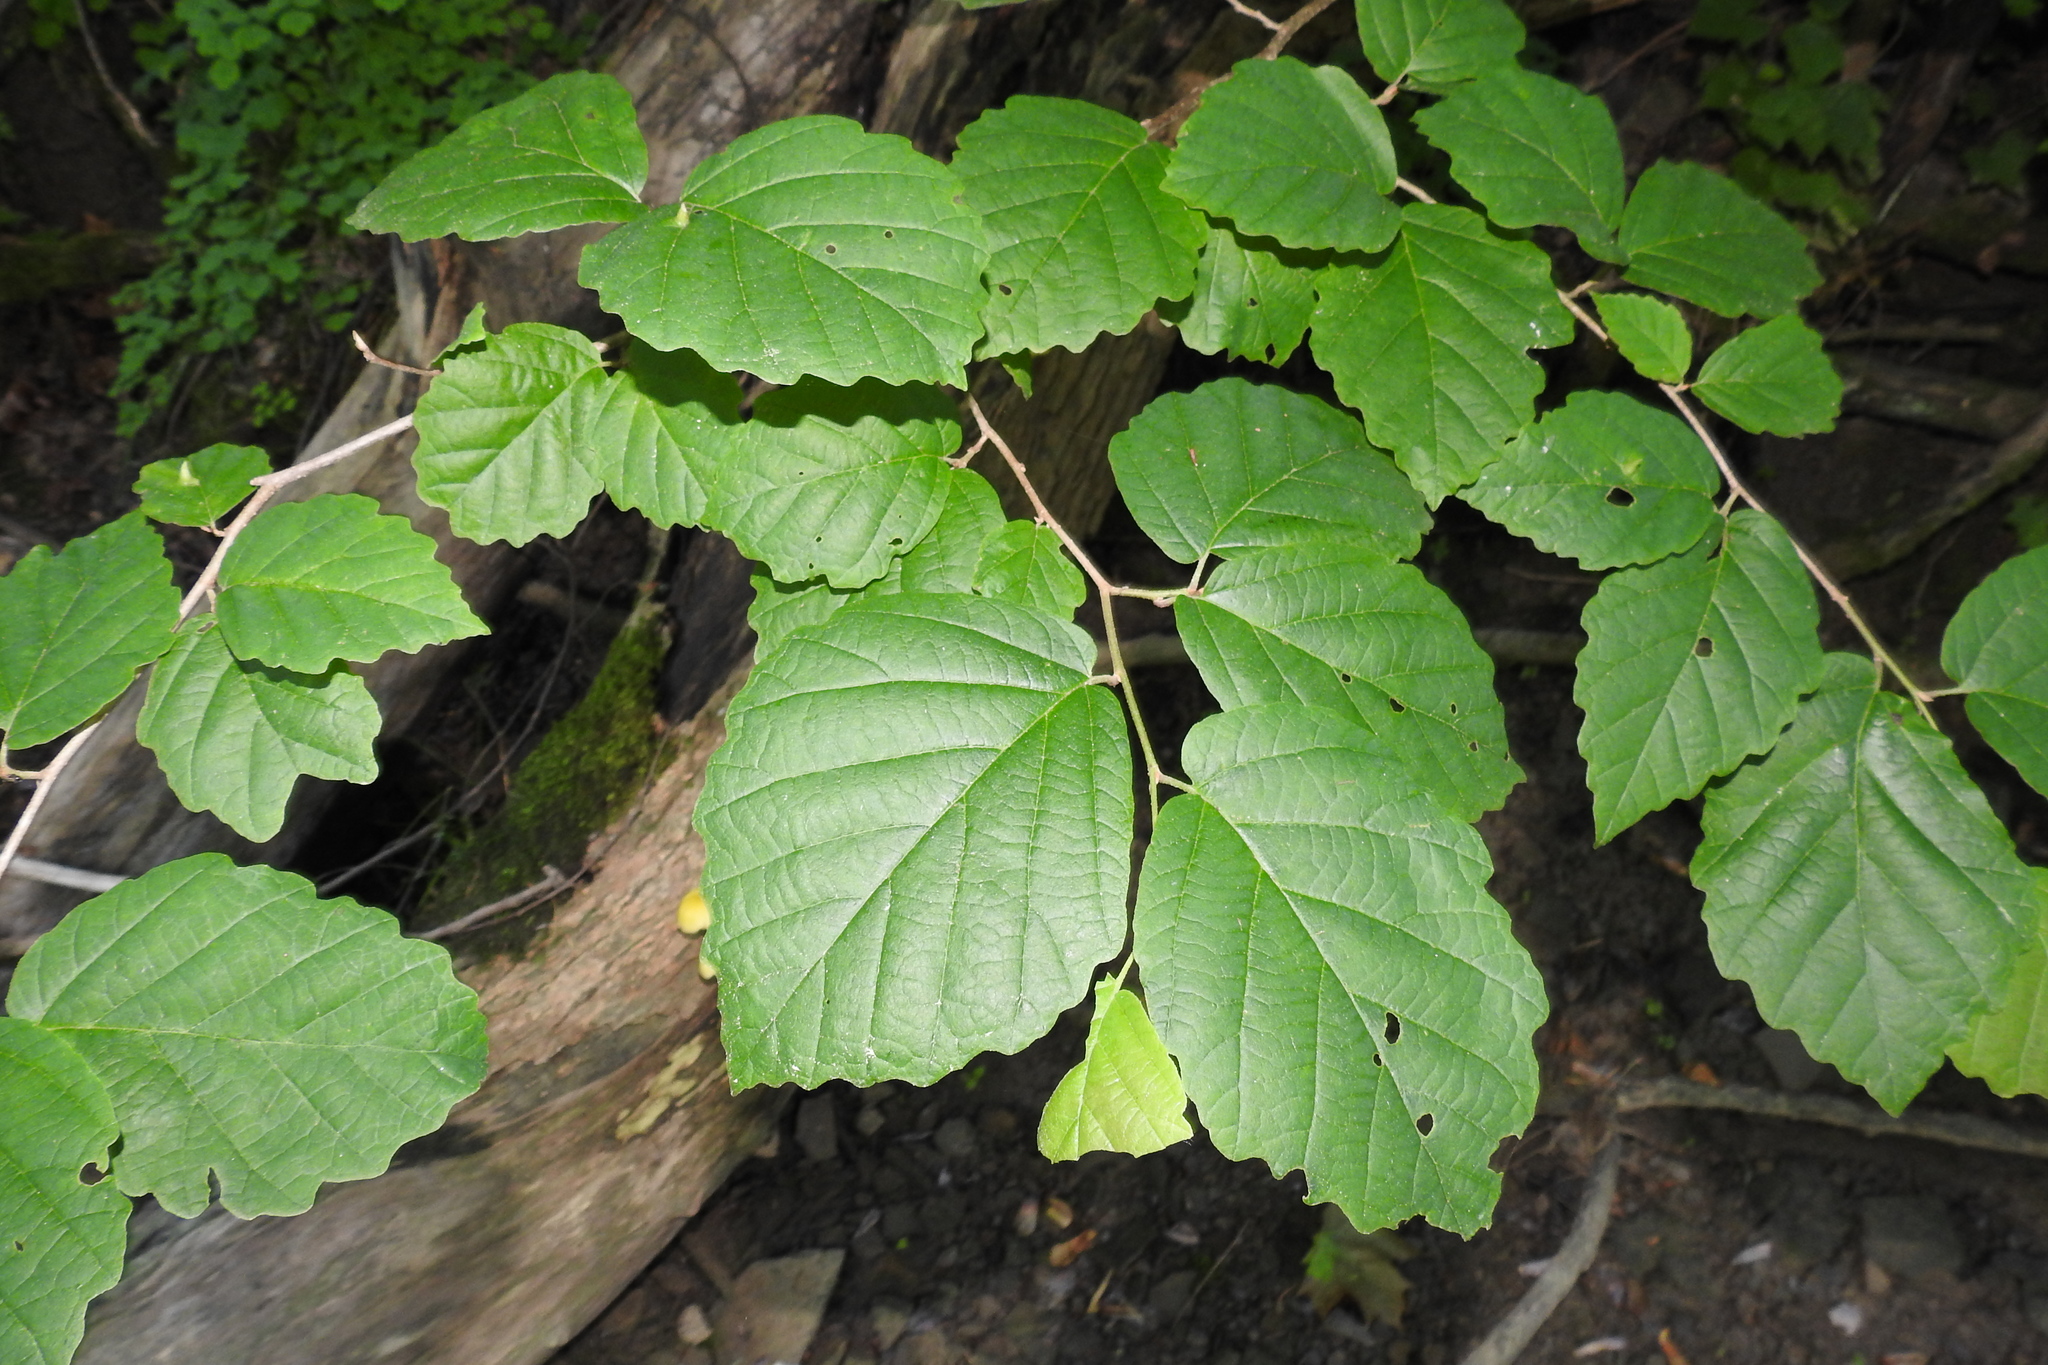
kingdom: Plantae
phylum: Tracheophyta
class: Magnoliopsida
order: Saxifragales
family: Hamamelidaceae
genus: Hamamelis
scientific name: Hamamelis virginiana
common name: Witch-hazel
